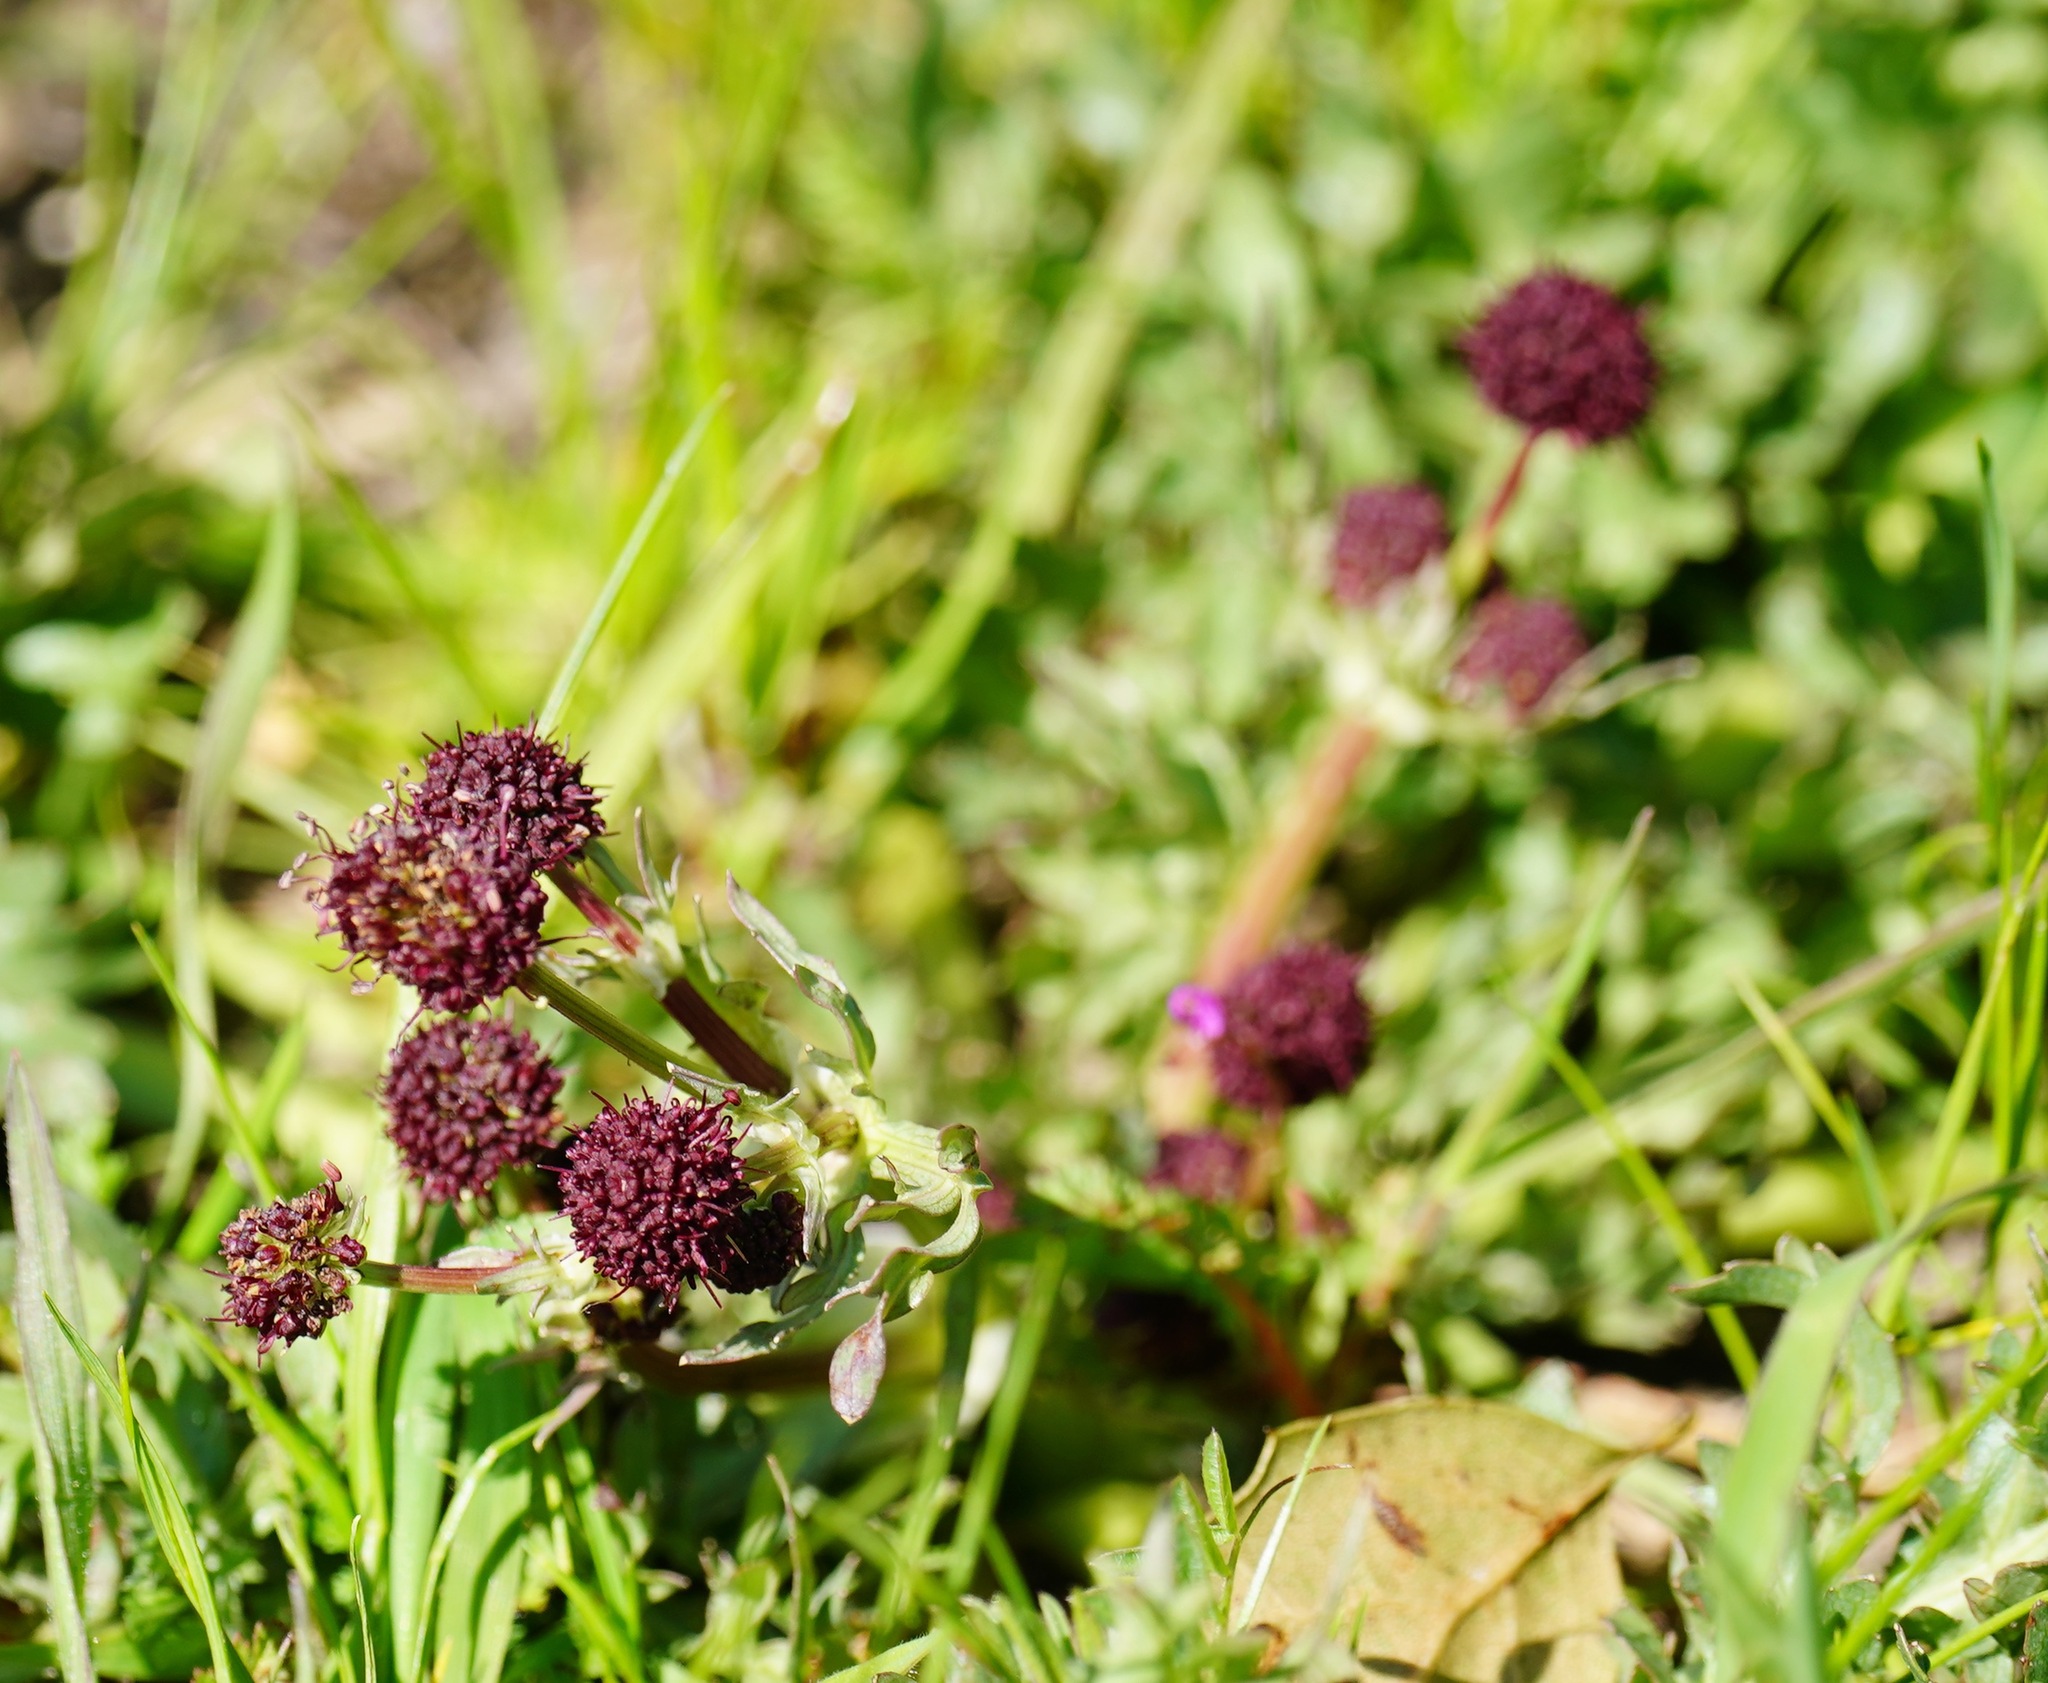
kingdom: Plantae
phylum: Tracheophyta
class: Magnoliopsida
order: Apiales
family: Apiaceae
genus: Sanicula
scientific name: Sanicula bipinnatifida
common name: Shoe-buttons
